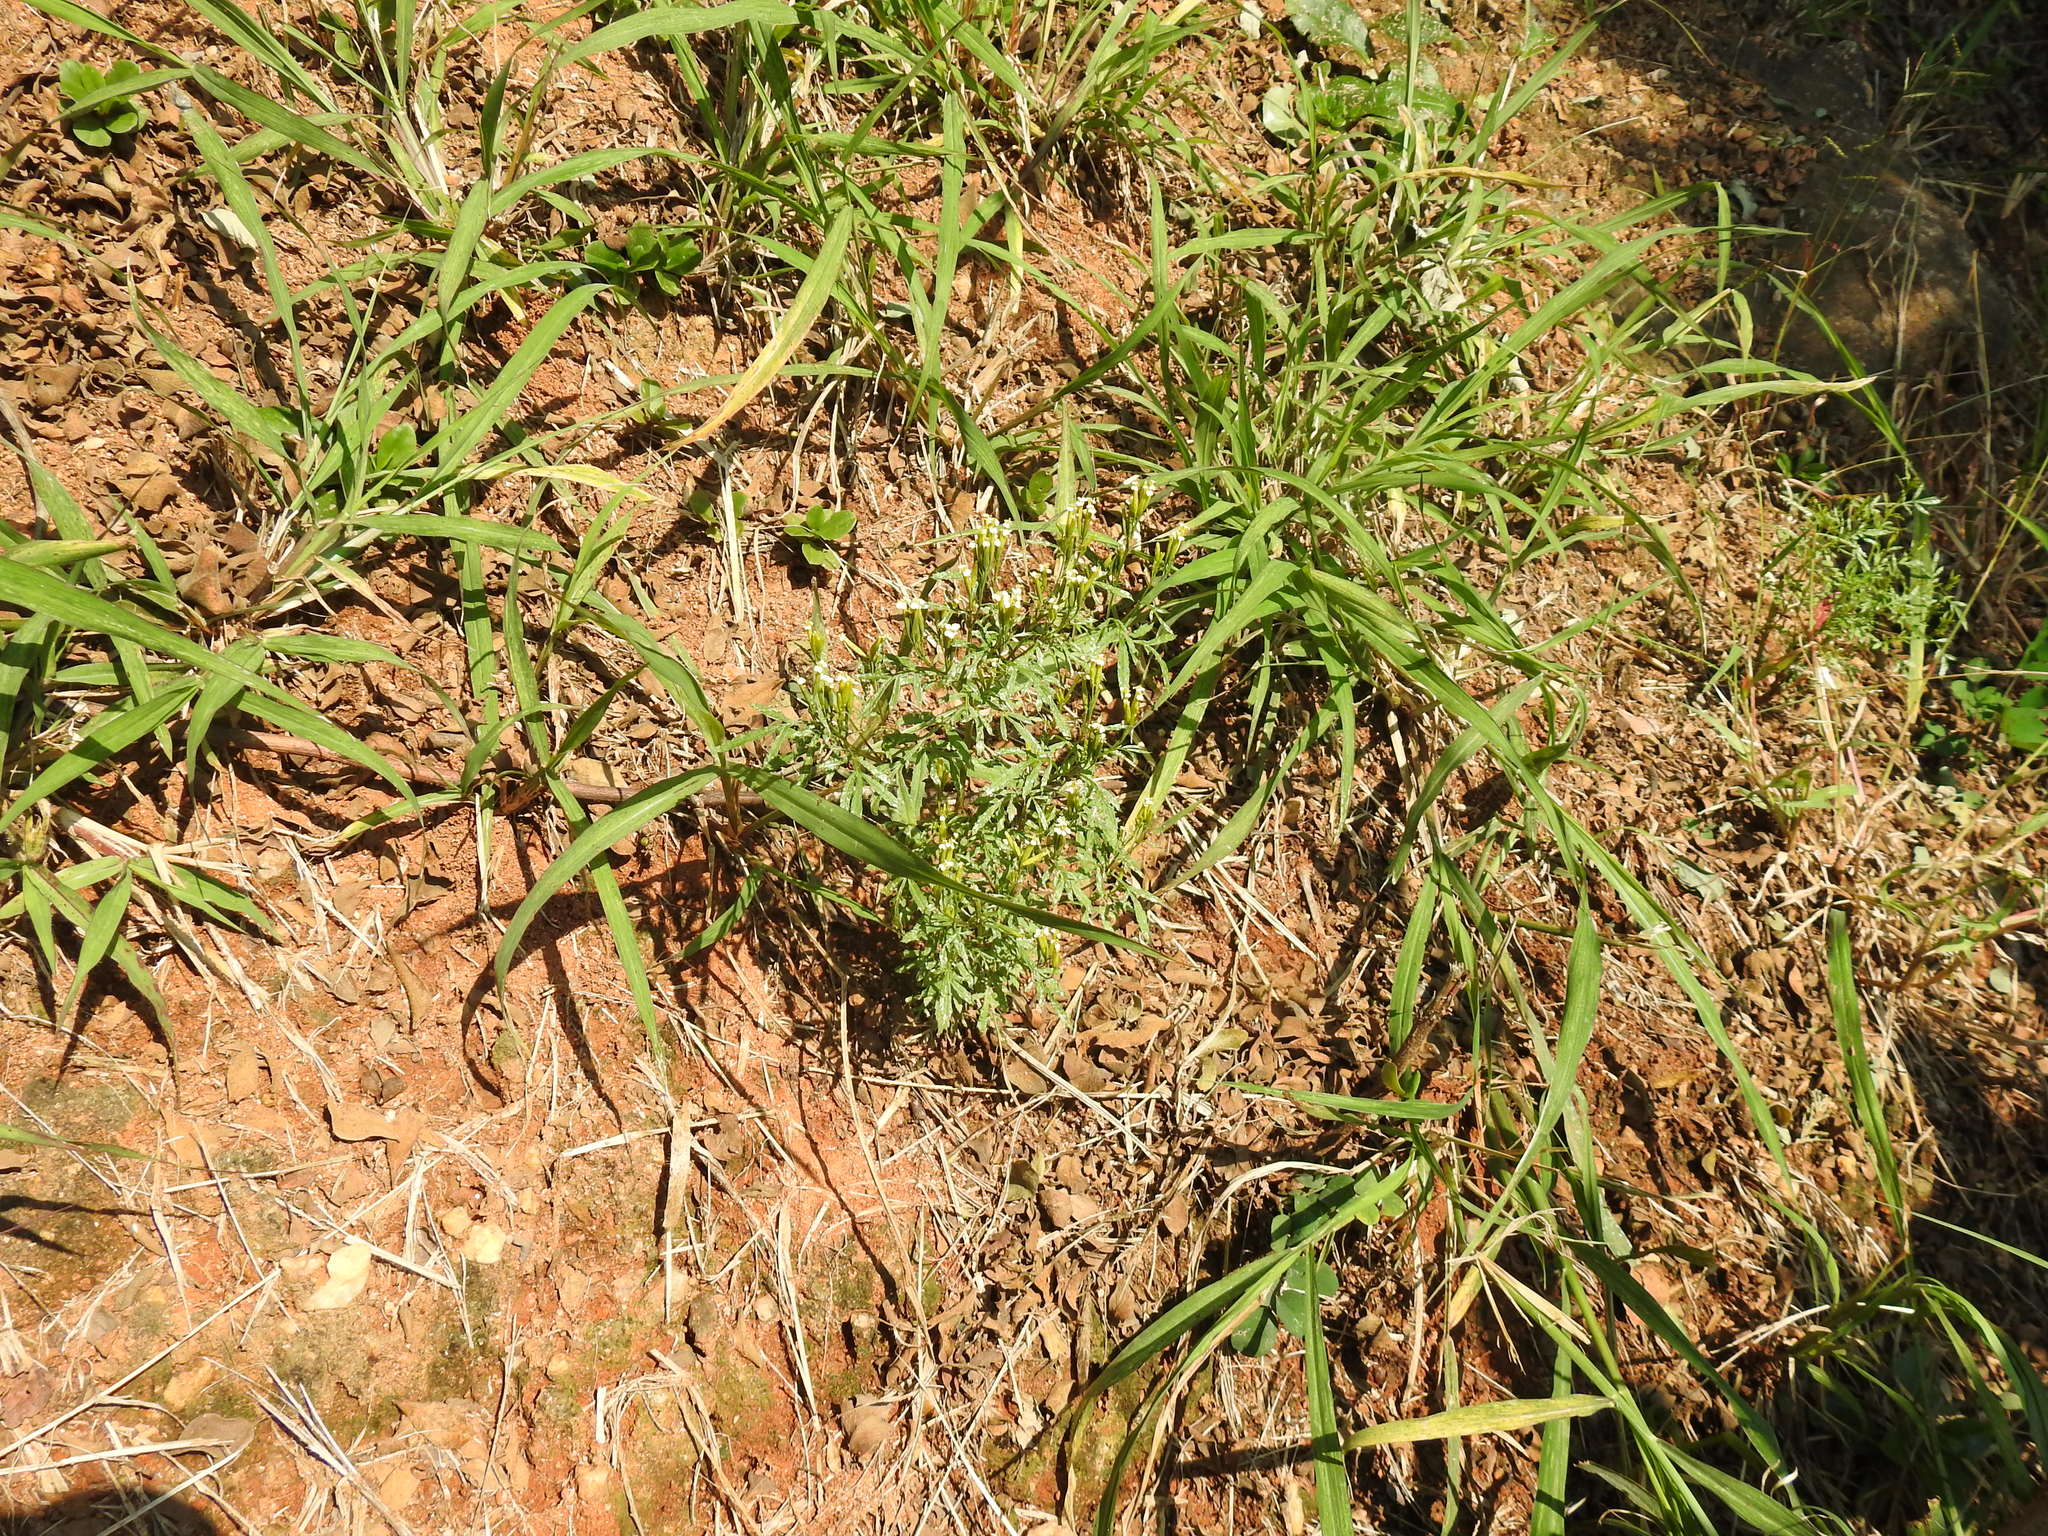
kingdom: Plantae
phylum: Tracheophyta
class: Magnoliopsida
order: Asterales
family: Asteraceae
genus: Tagetes
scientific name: Tagetes minuta
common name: Muster john henry
